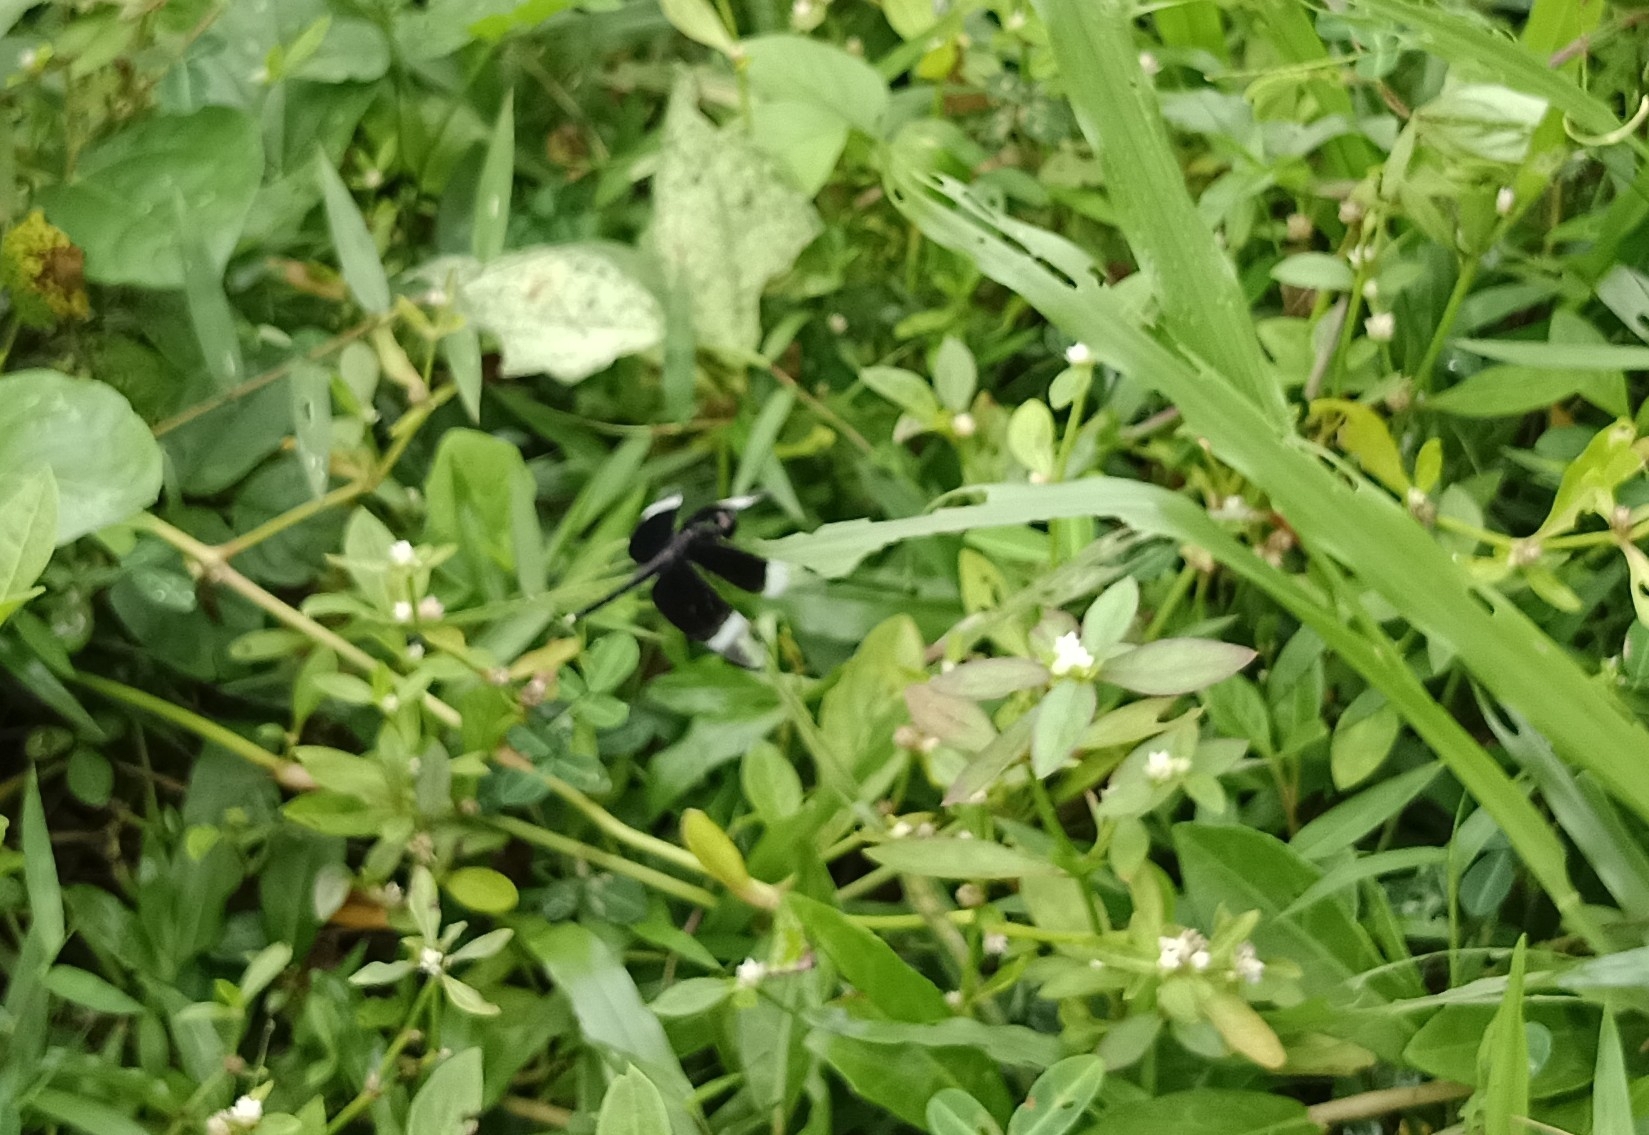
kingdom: Animalia
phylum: Arthropoda
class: Insecta
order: Odonata
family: Libellulidae
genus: Neurothemis
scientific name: Neurothemis tullia
